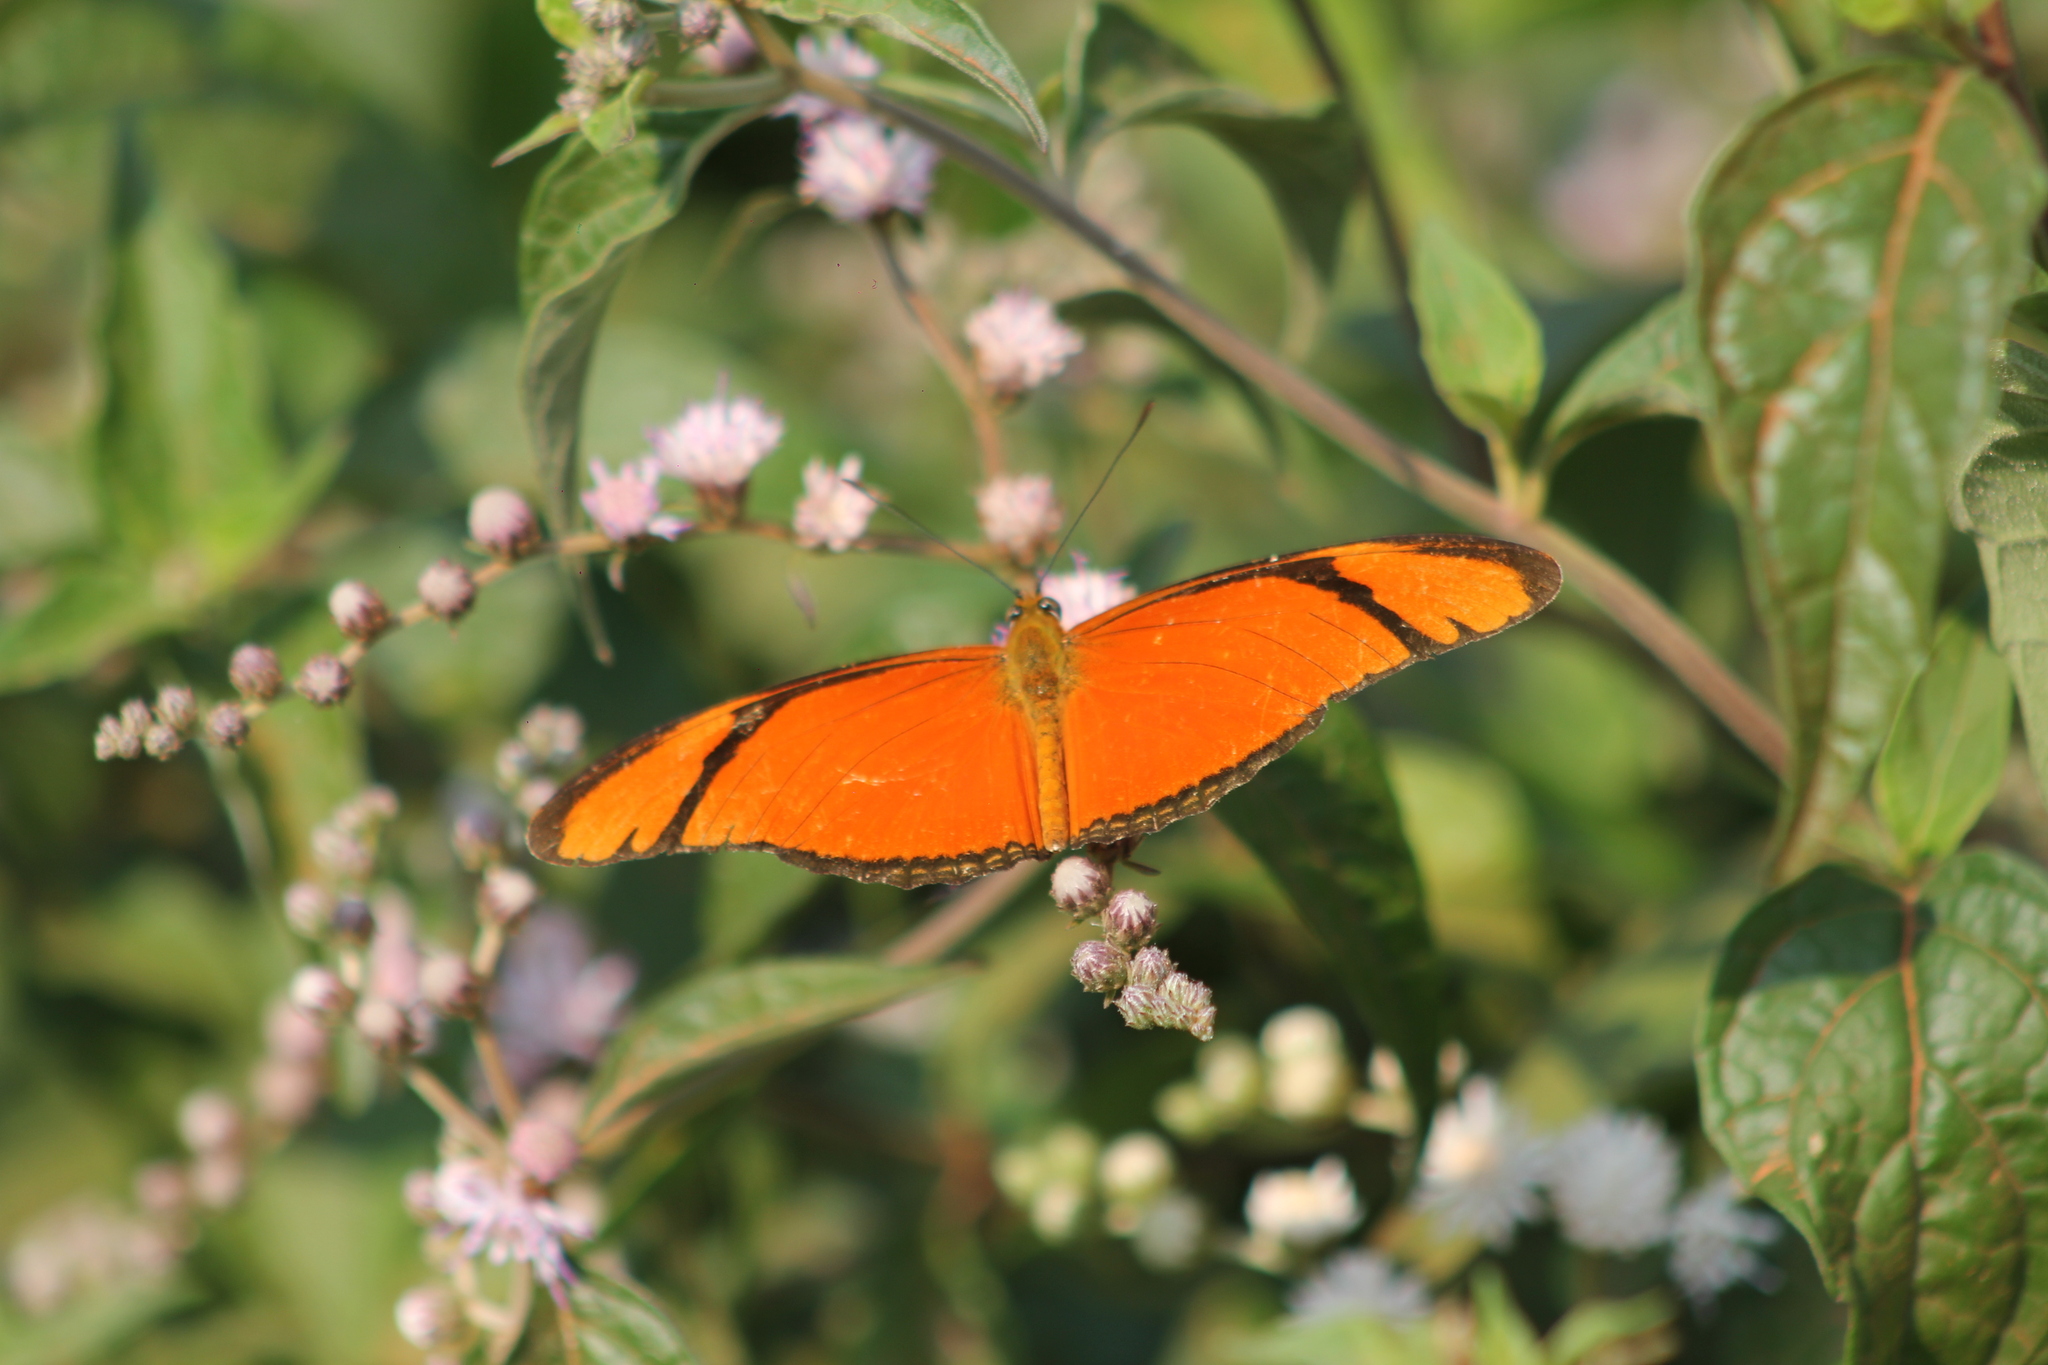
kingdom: Animalia
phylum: Arthropoda
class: Insecta
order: Lepidoptera
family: Nymphalidae
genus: Dryas
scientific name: Dryas iulia
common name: Flambeau
